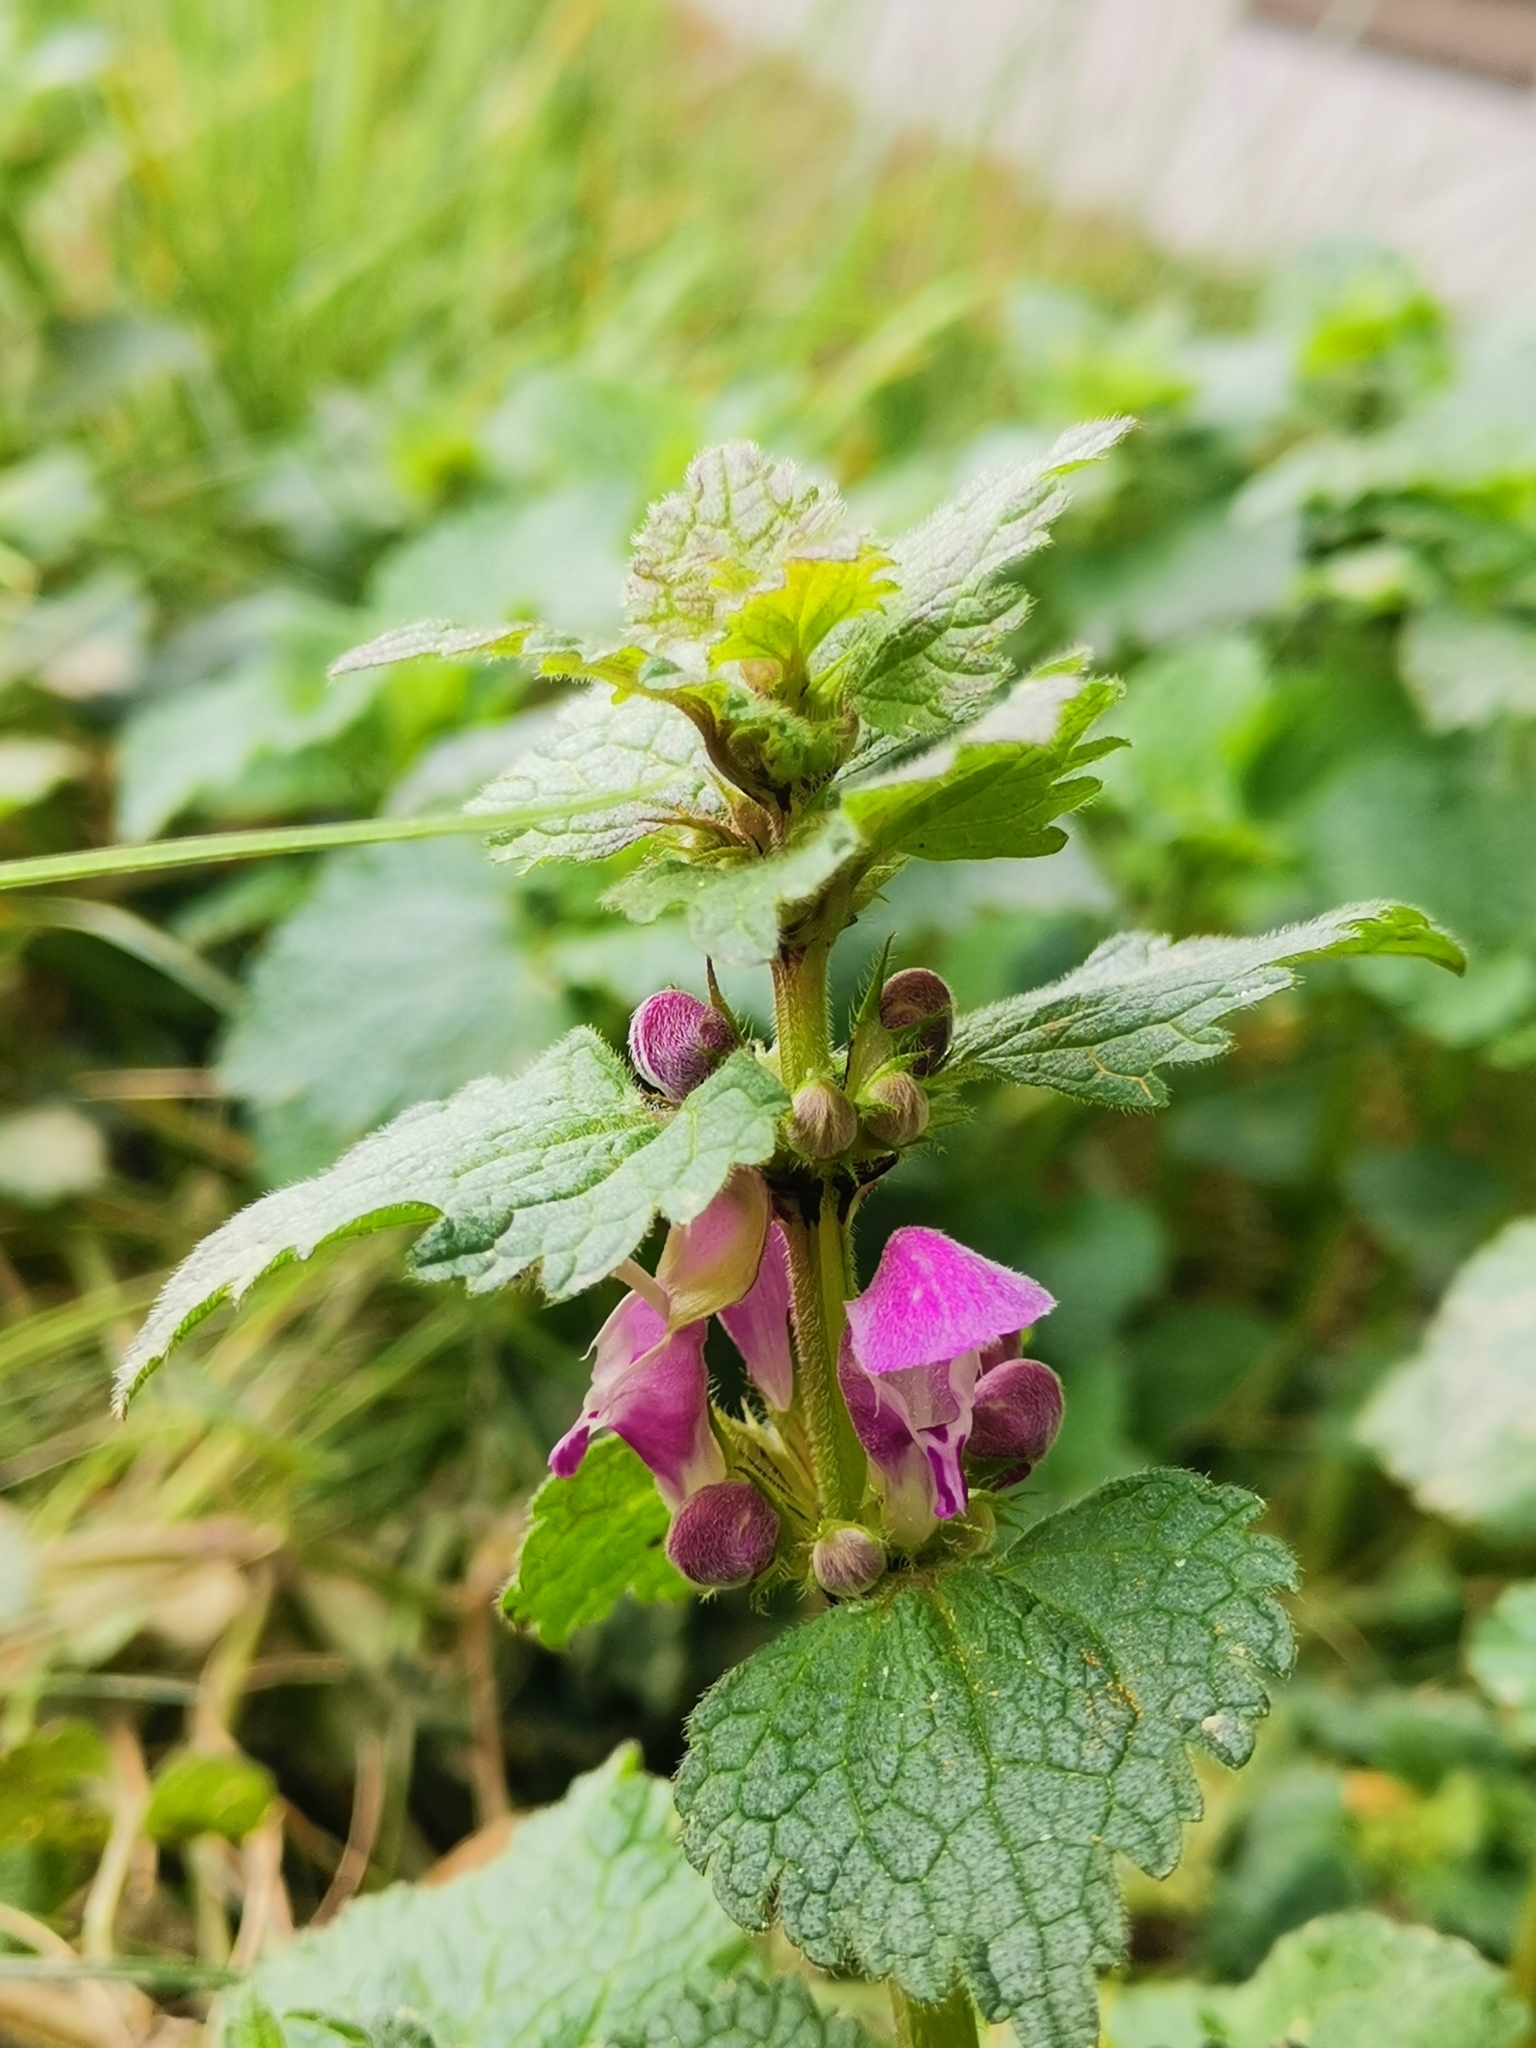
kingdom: Plantae
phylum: Tracheophyta
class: Magnoliopsida
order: Lamiales
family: Lamiaceae
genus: Lamium
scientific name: Lamium maculatum
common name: Spotted dead-nettle
